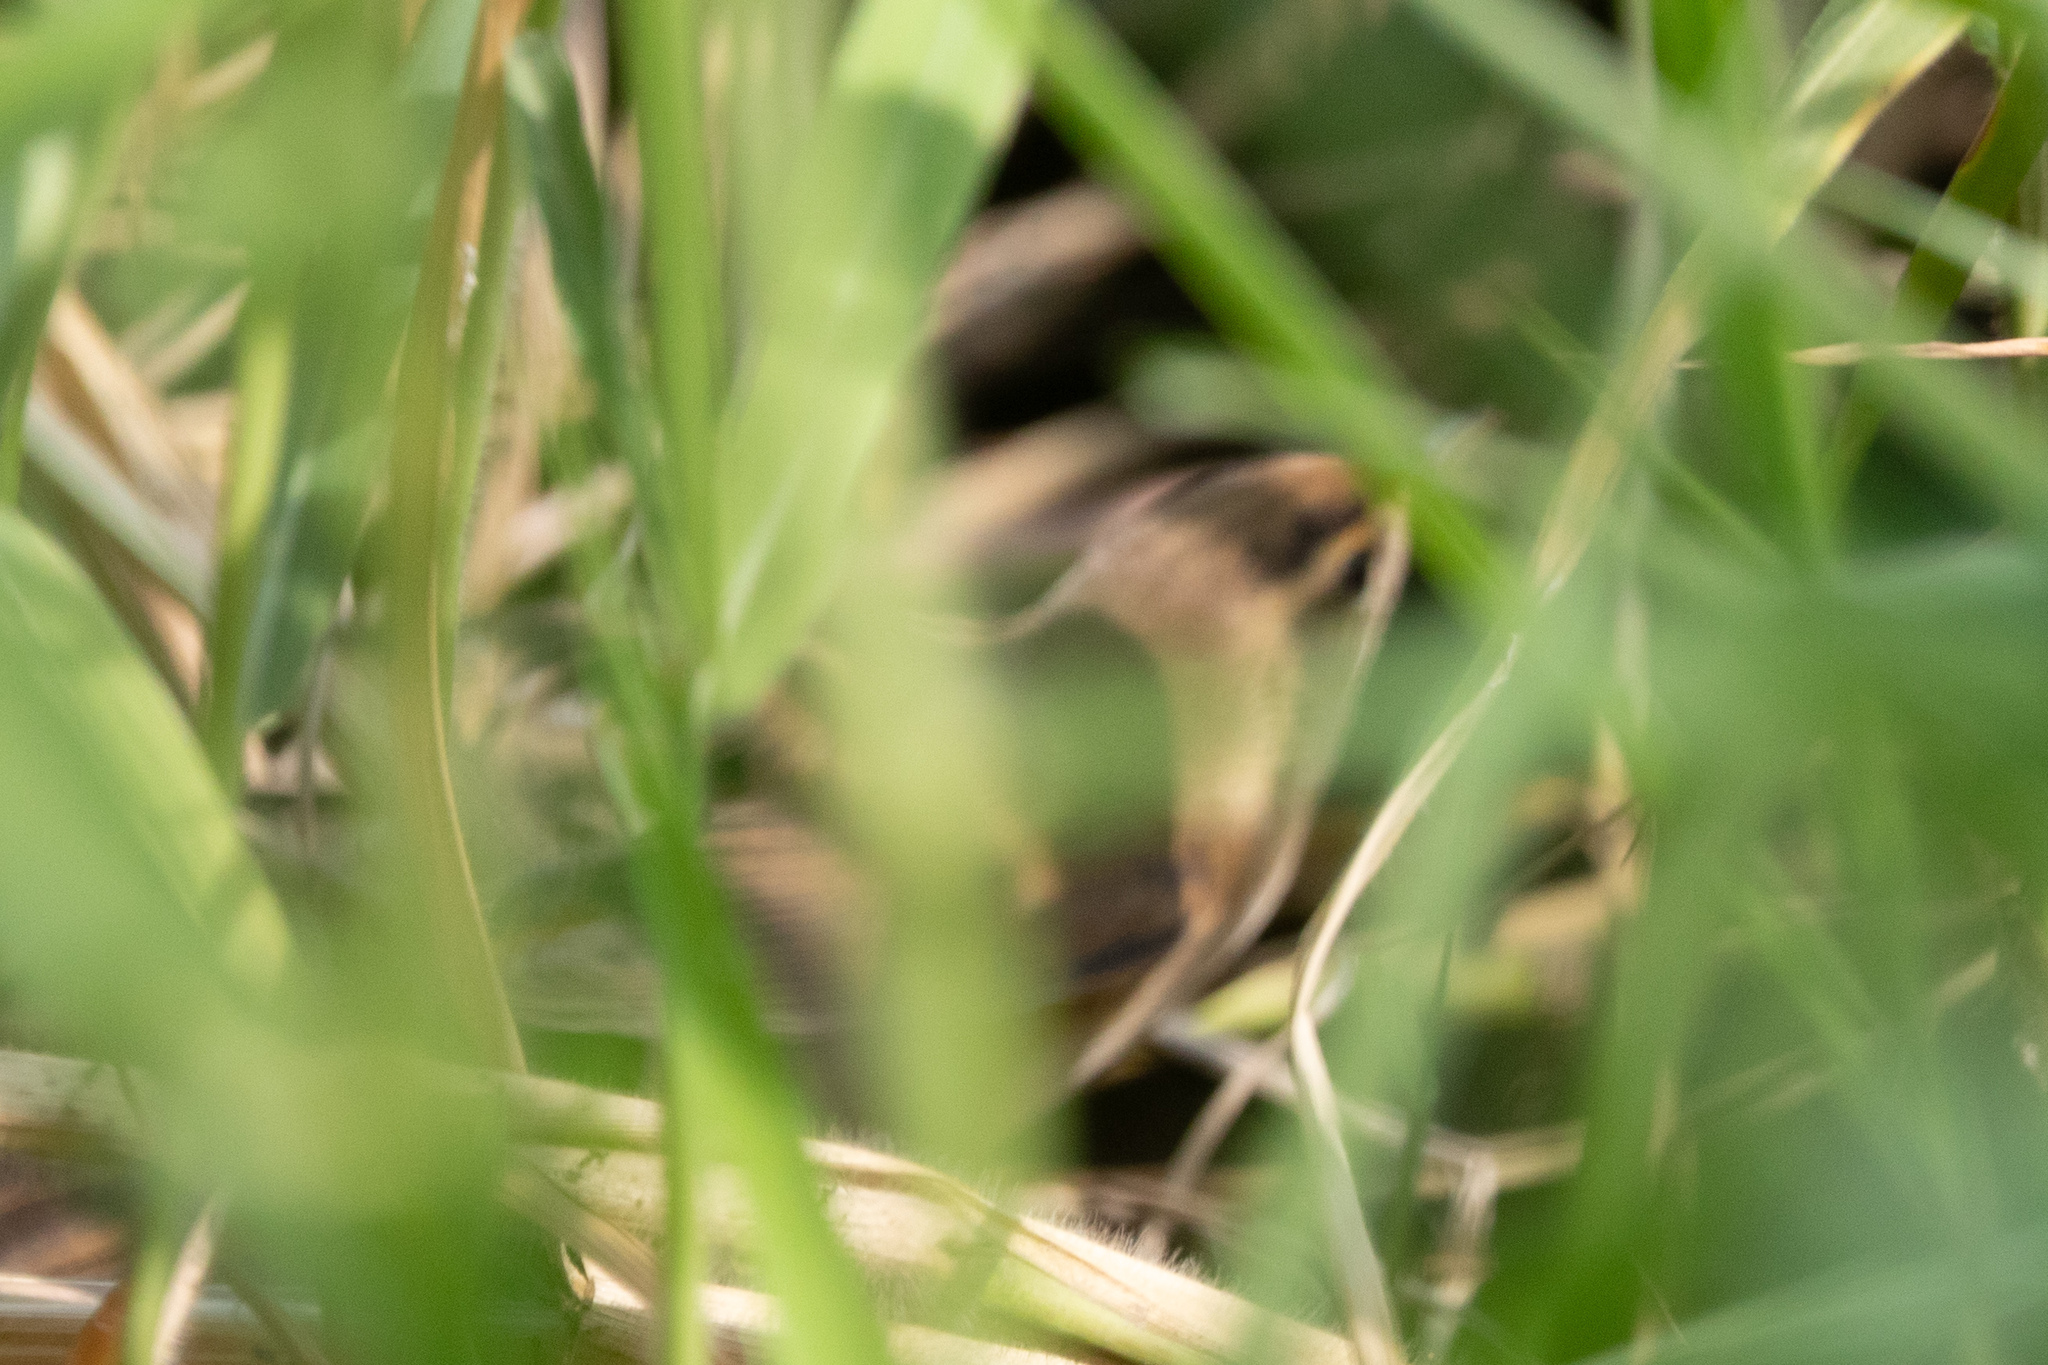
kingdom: Animalia
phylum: Chordata
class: Aves
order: Passeriformes
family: Acrocephalidae
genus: Acrocephalus
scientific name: Acrocephalus bistrigiceps
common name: Black-browed reed warbler
